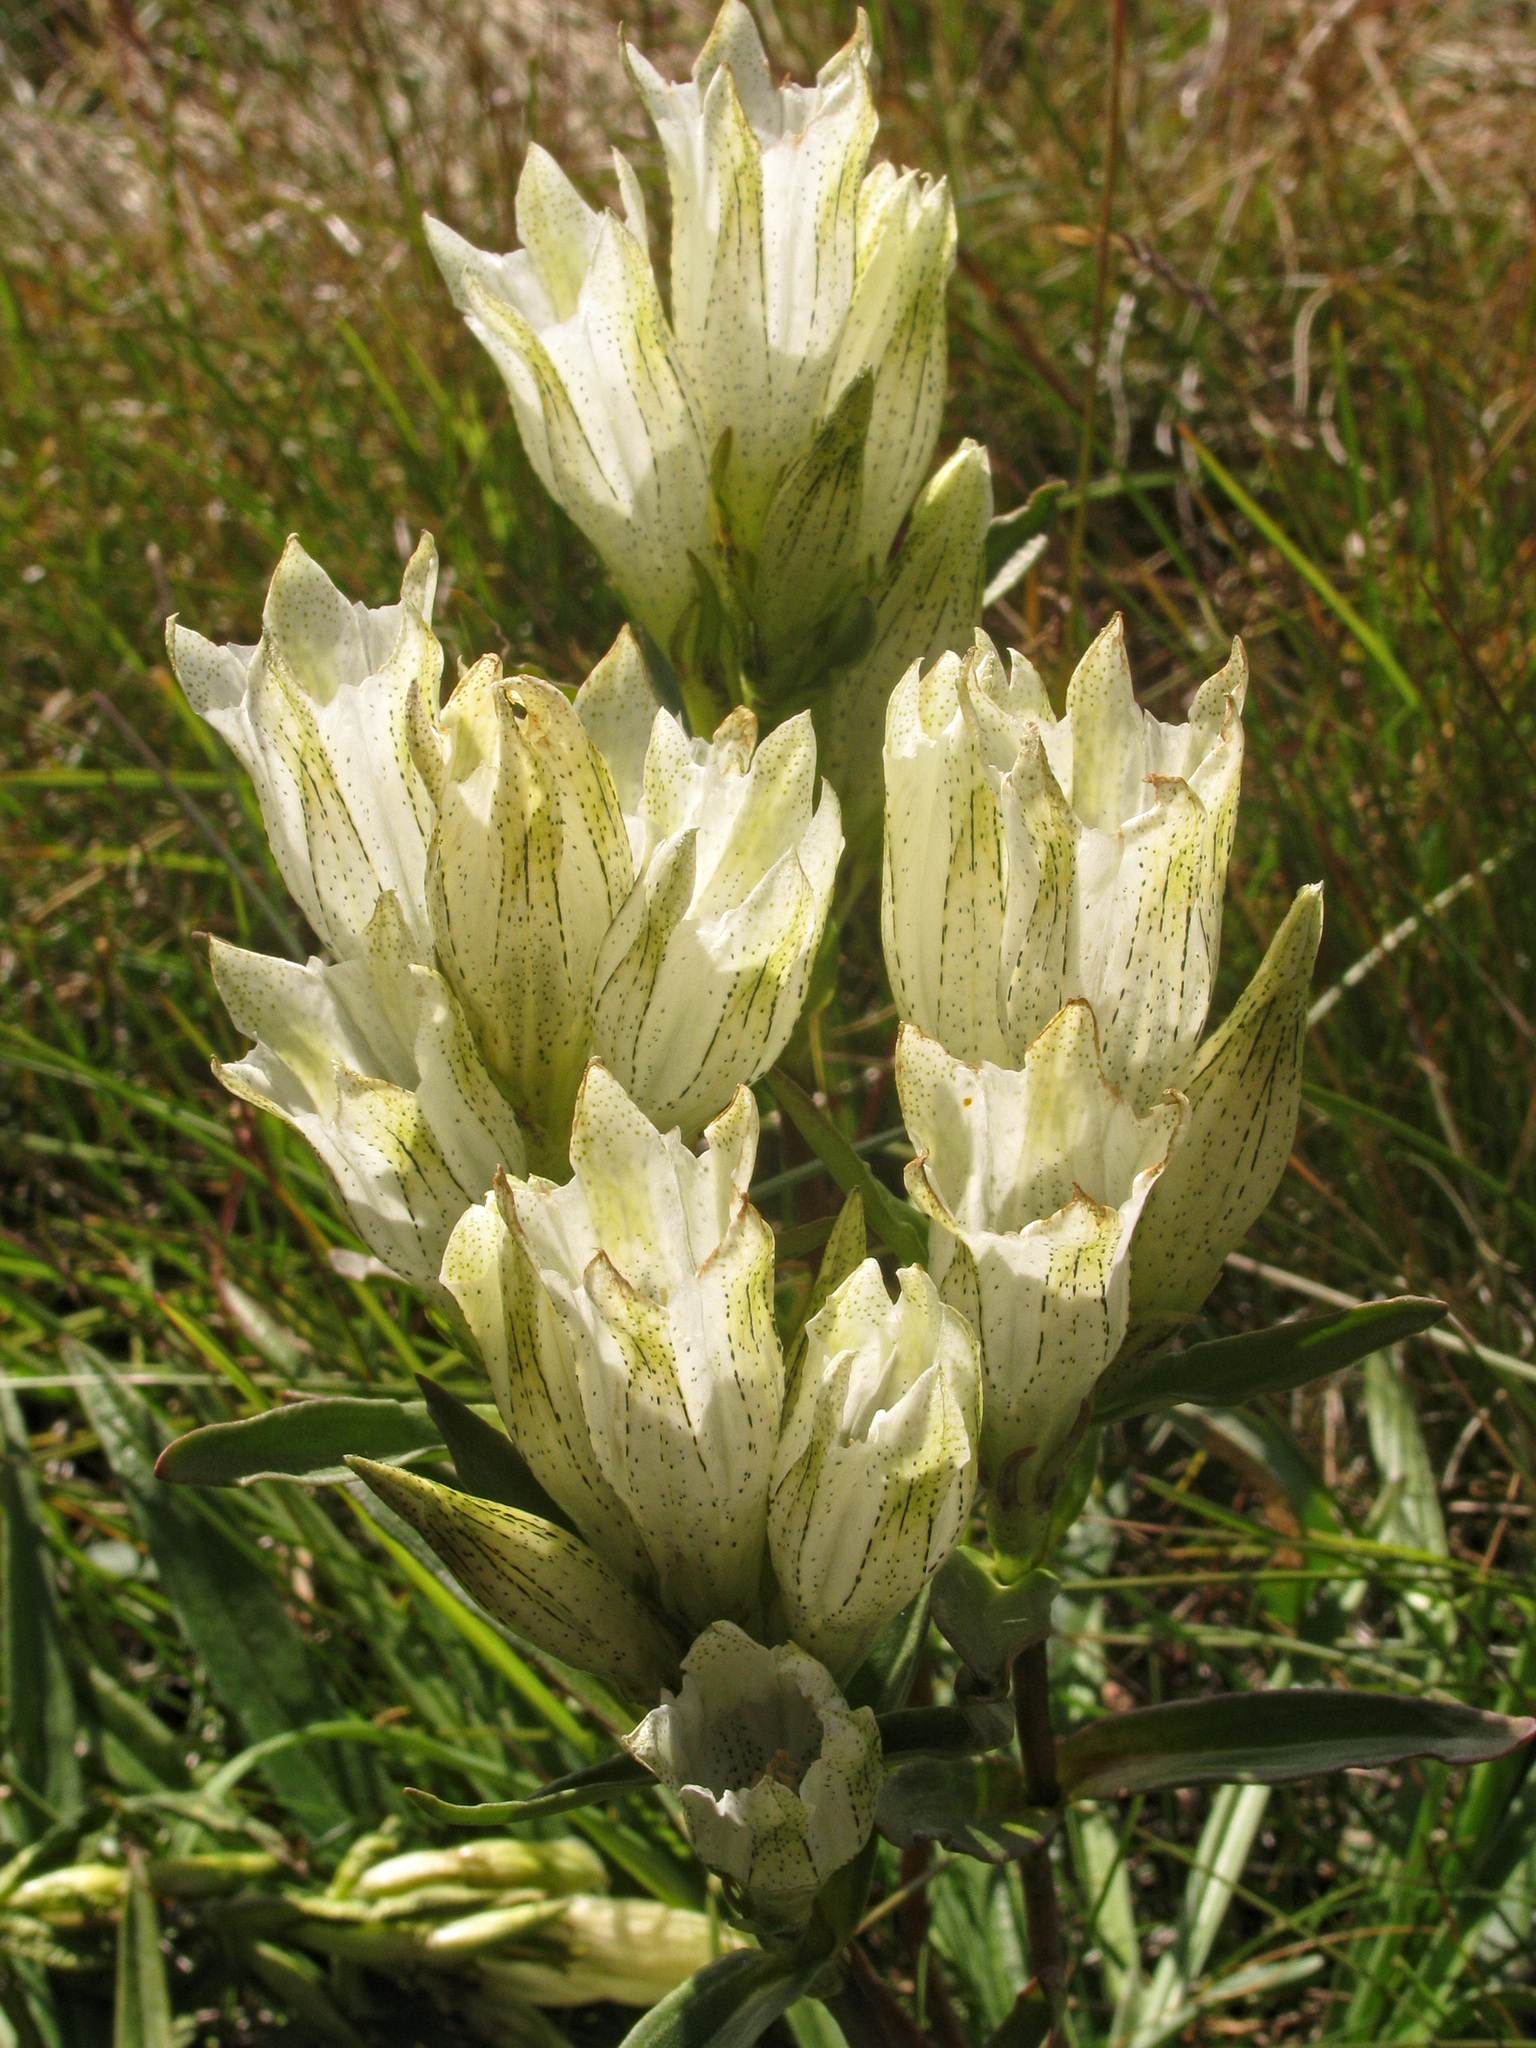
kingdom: Plantae
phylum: Tracheophyta
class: Magnoliopsida
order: Gentianales
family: Gentianaceae
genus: Gentiana
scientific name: Gentiana algida
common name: Arctic gentian
